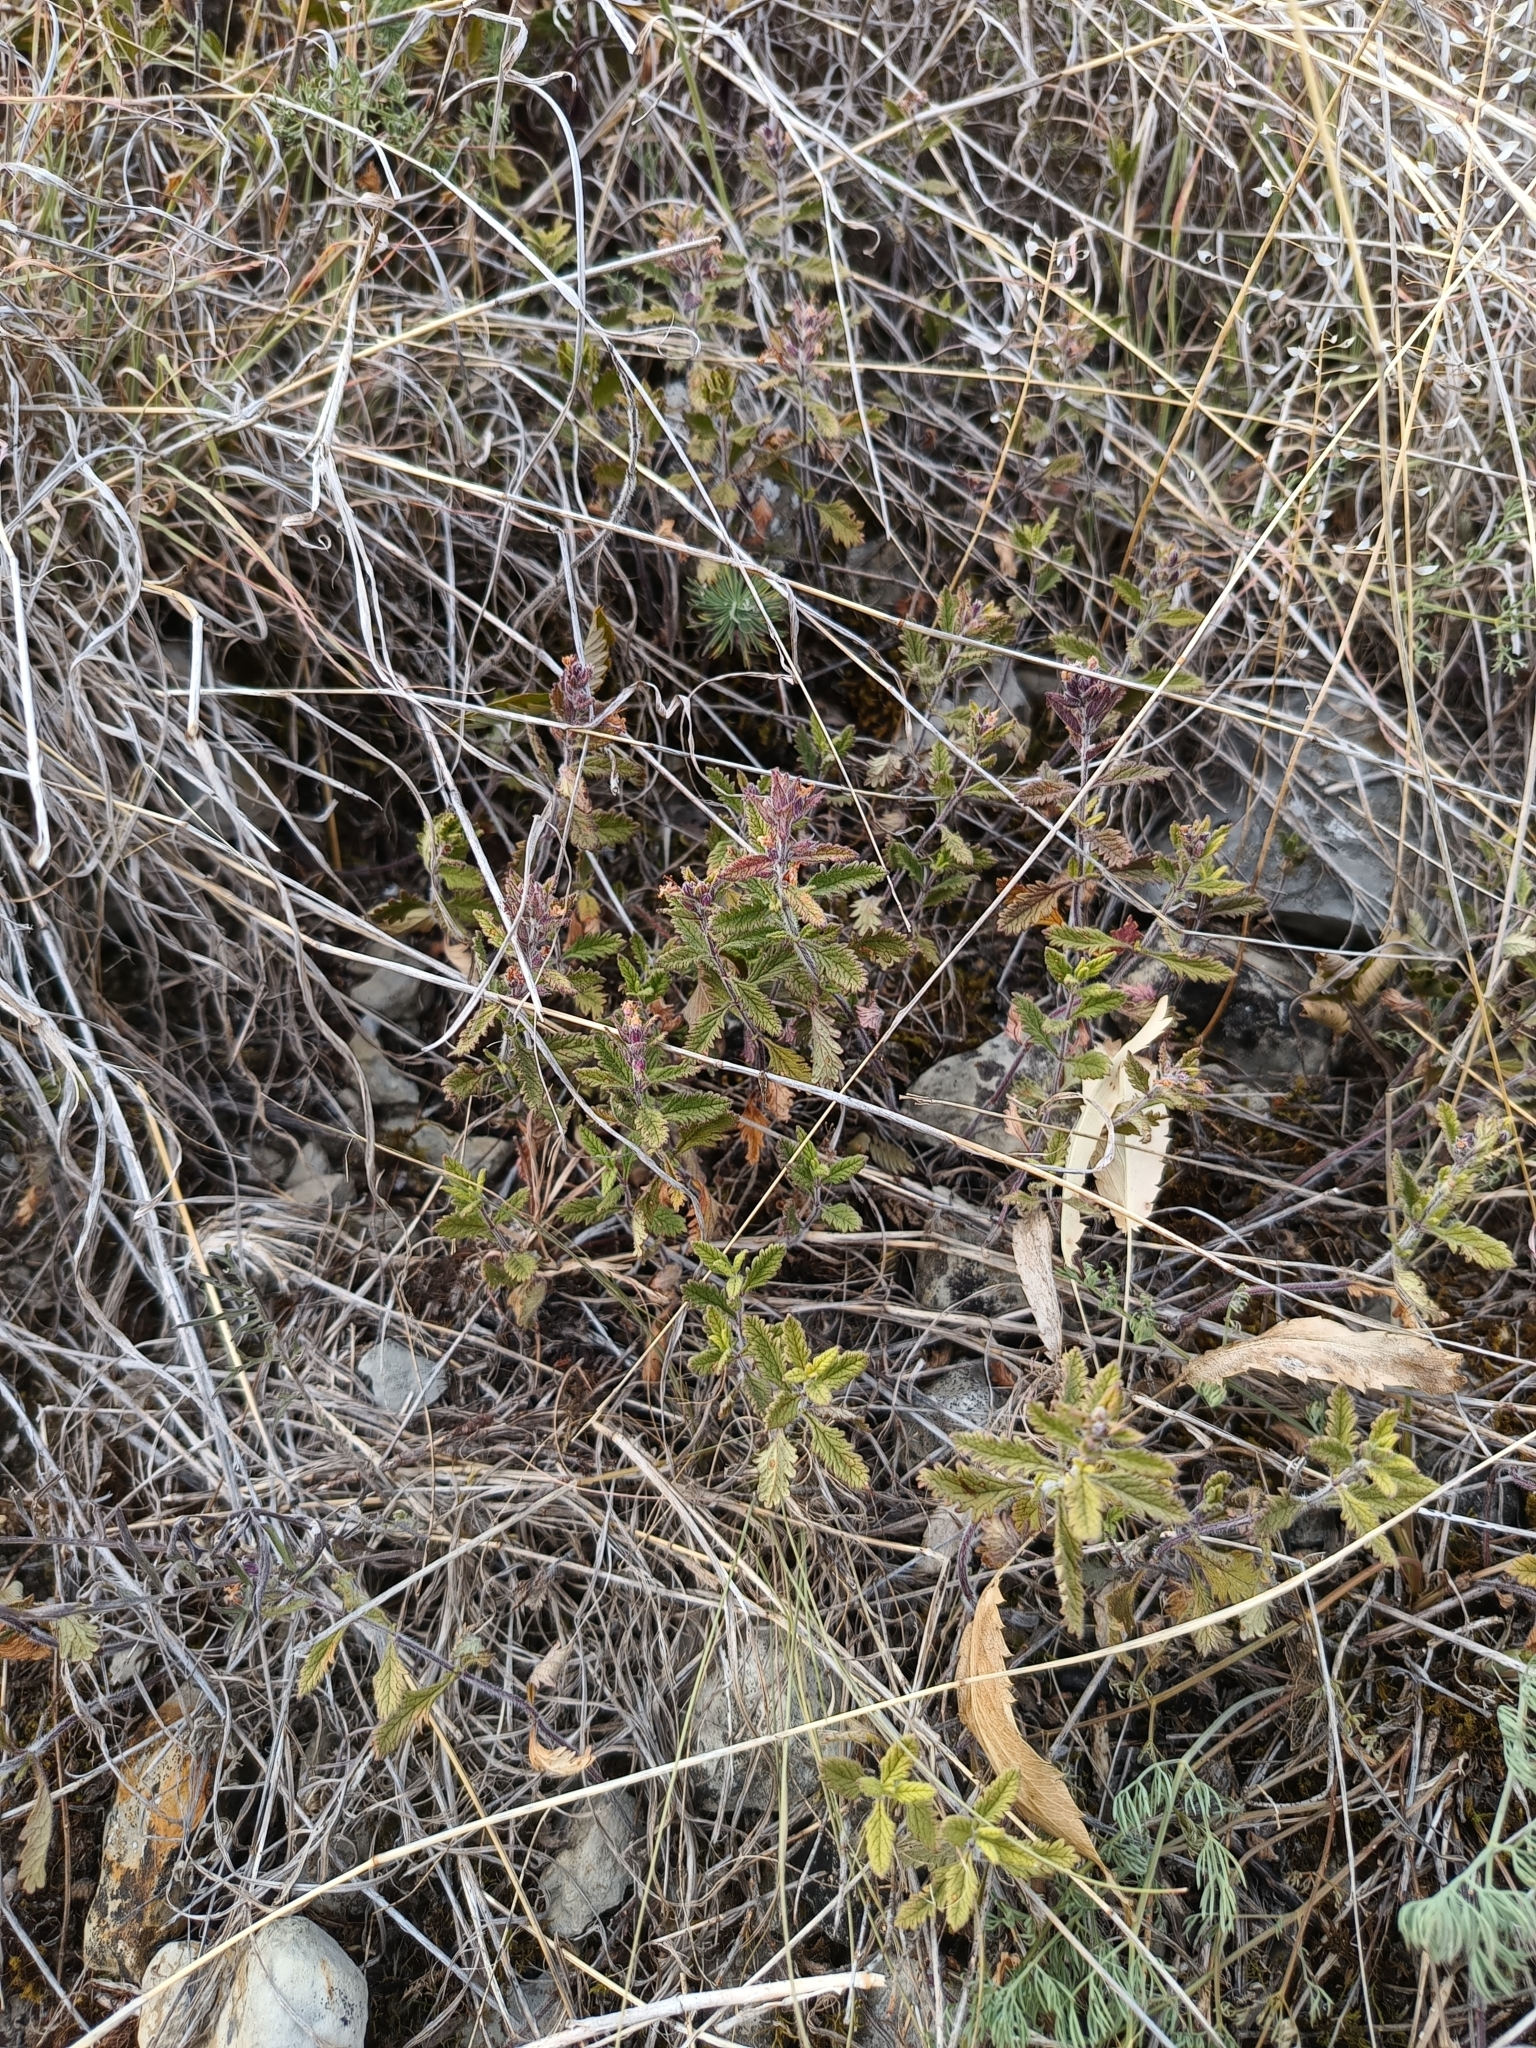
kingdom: Plantae
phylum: Tracheophyta
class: Magnoliopsida
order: Lamiales
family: Lamiaceae
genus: Teucrium
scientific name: Teucrium chamaedrys
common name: Wall germander
